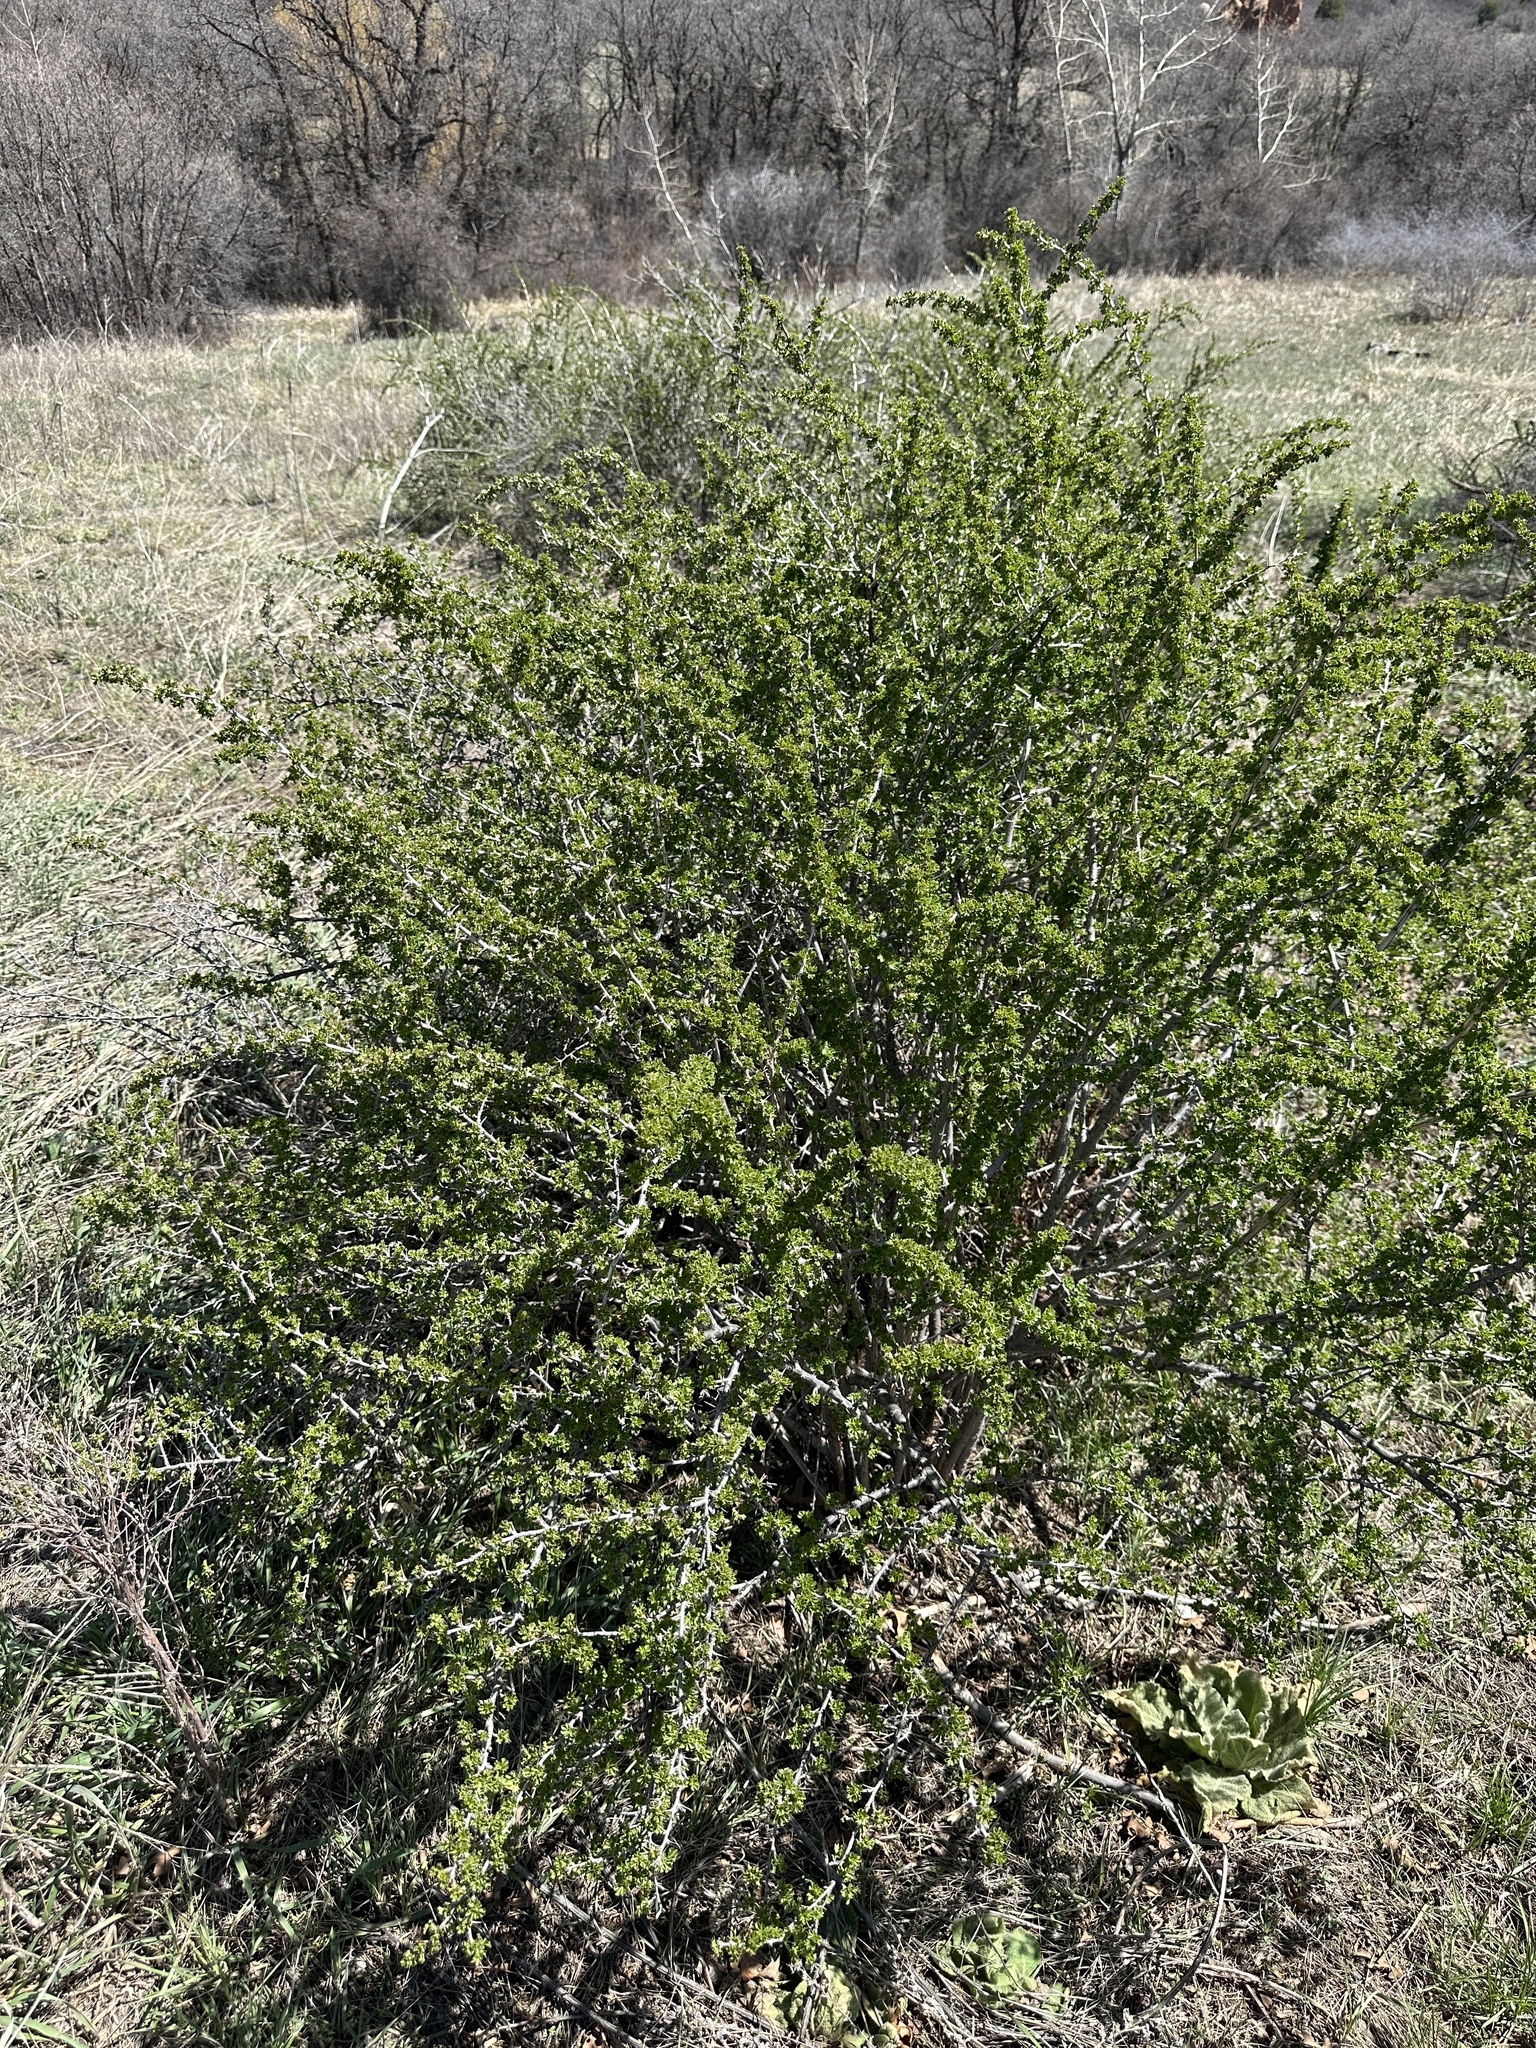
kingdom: Plantae
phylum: Tracheophyta
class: Magnoliopsida
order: Saxifragales
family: Grossulariaceae
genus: Ribes
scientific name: Ribes leptanthum
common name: Trumpet gooseberry
